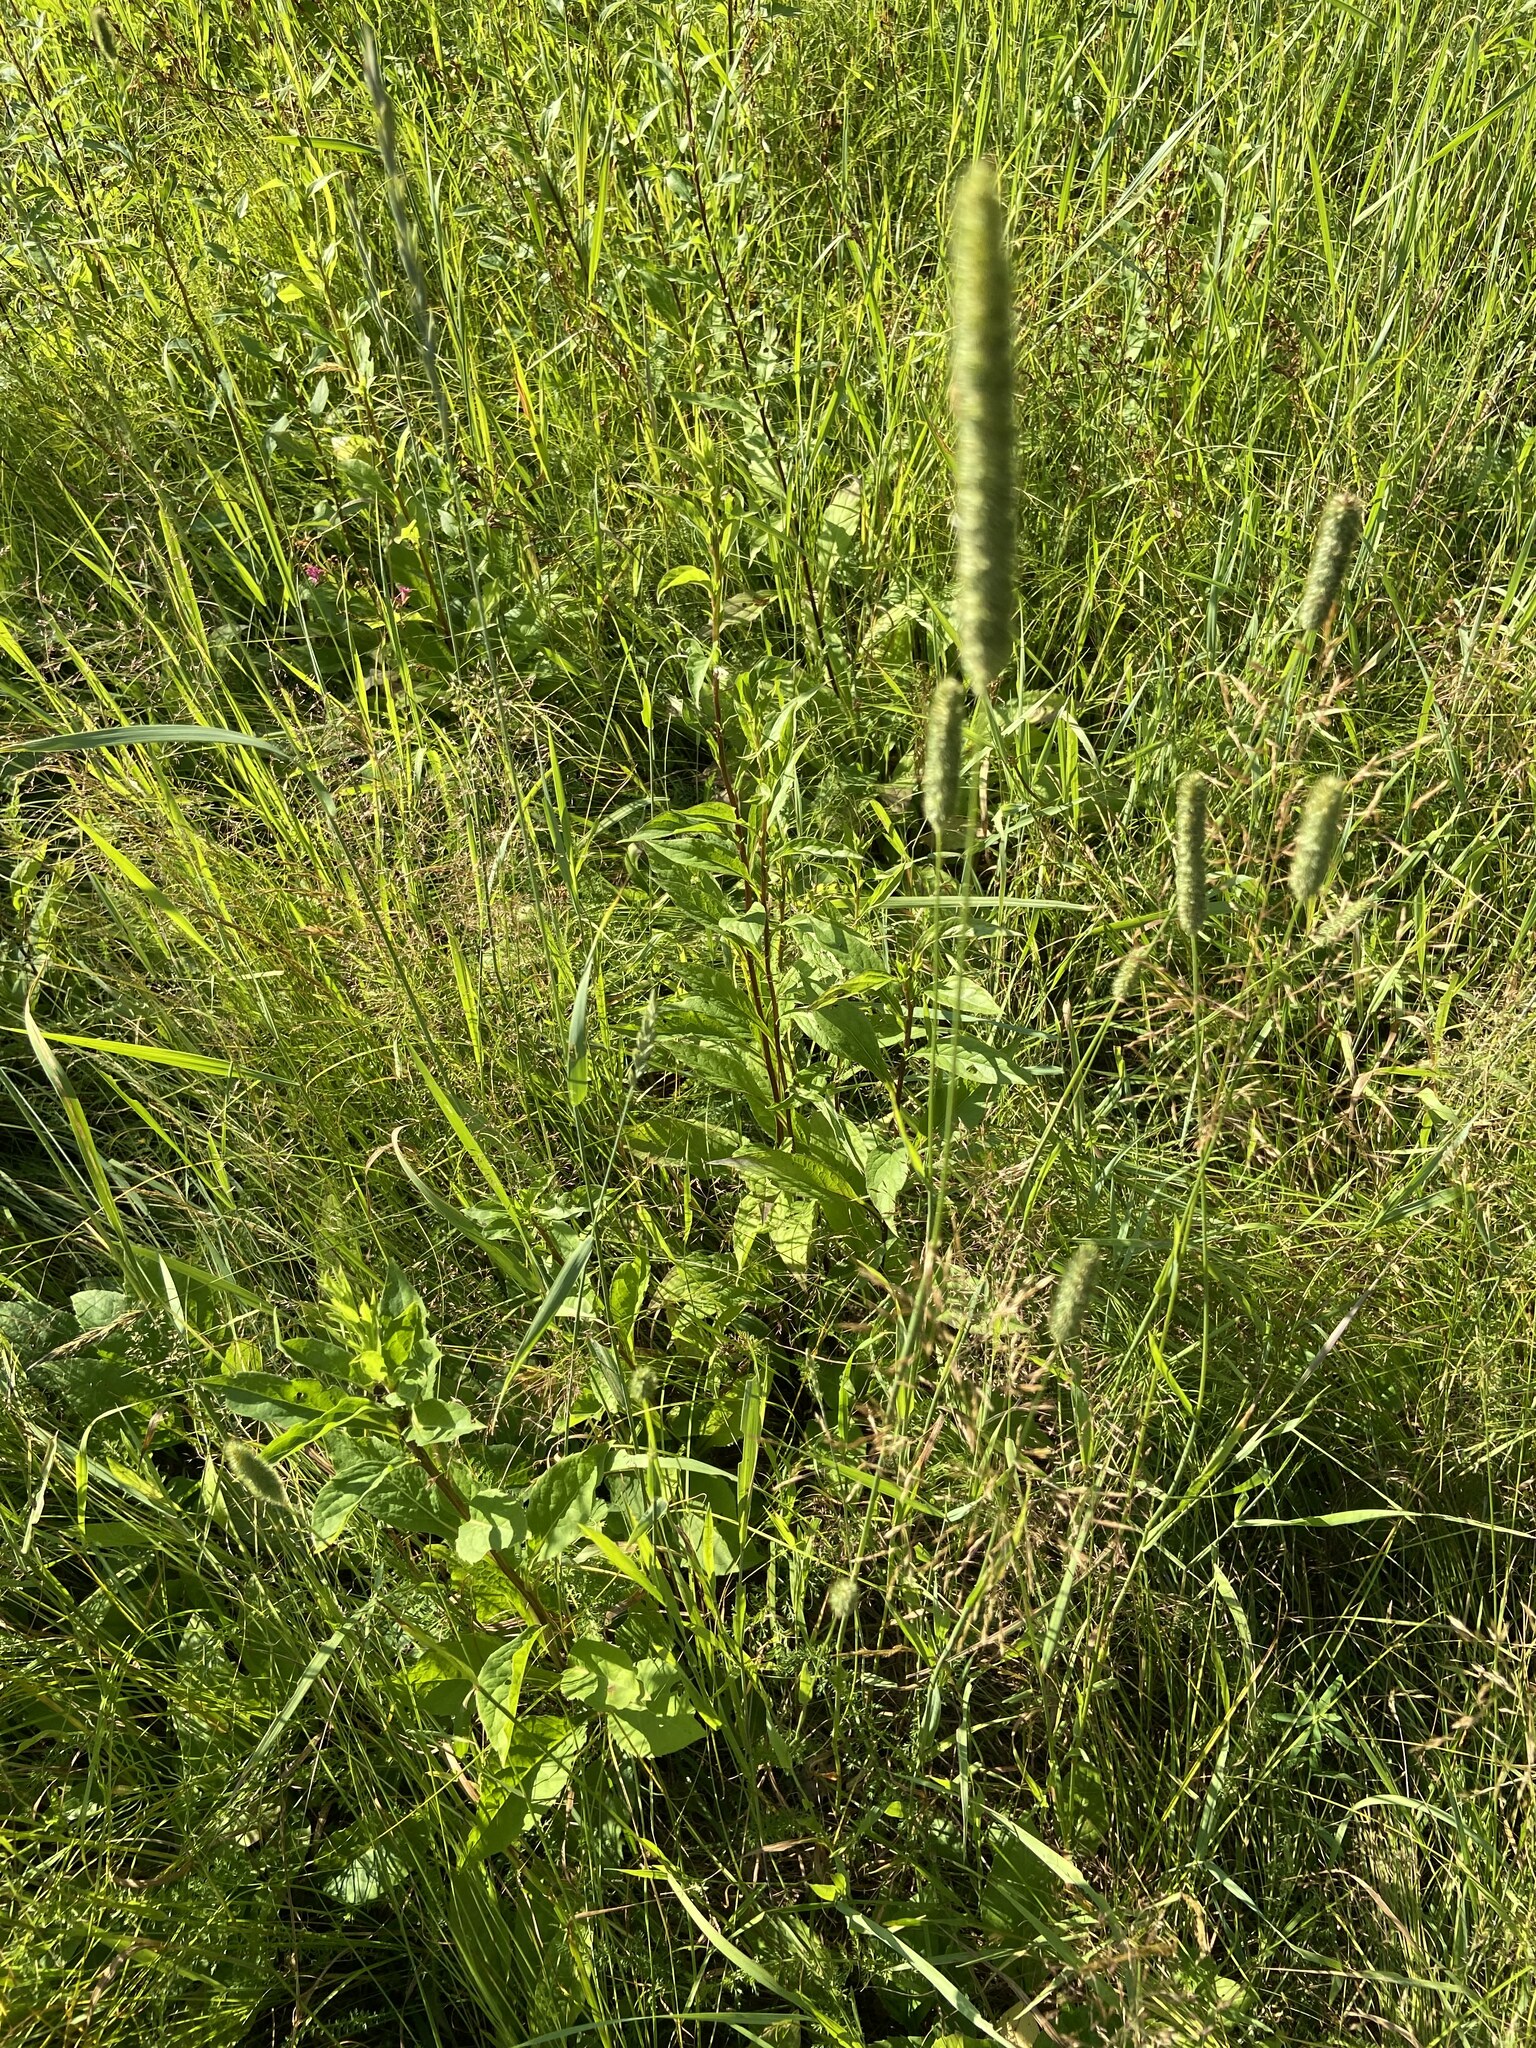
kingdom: Plantae
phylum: Tracheophyta
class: Liliopsida
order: Poales
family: Poaceae
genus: Phleum
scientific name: Phleum pratense
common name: Timothy grass
